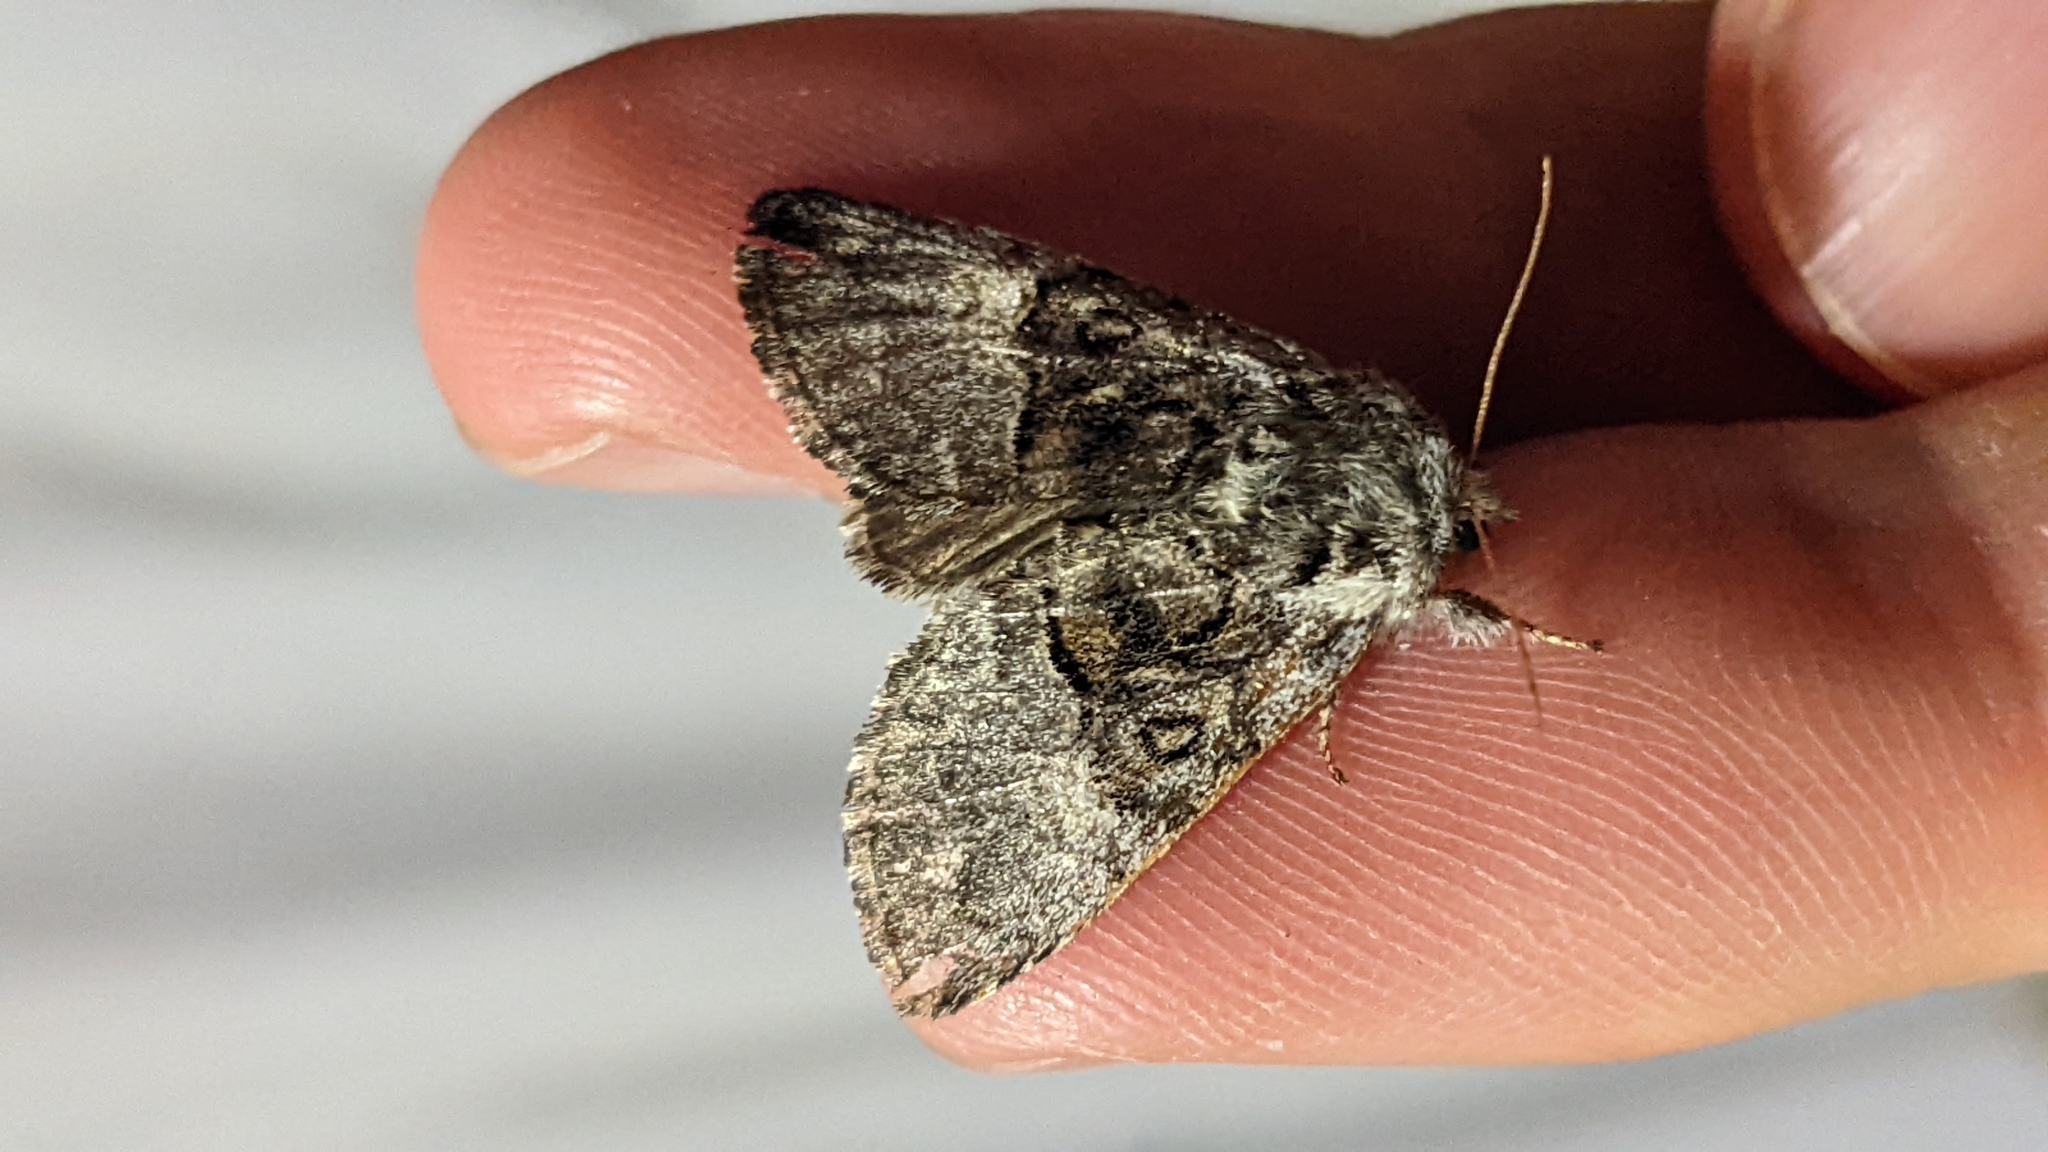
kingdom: Animalia
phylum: Arthropoda
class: Insecta
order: Lepidoptera
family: Noctuidae
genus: Colocasia
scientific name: Colocasia coryli
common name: Nut-tree tussock
